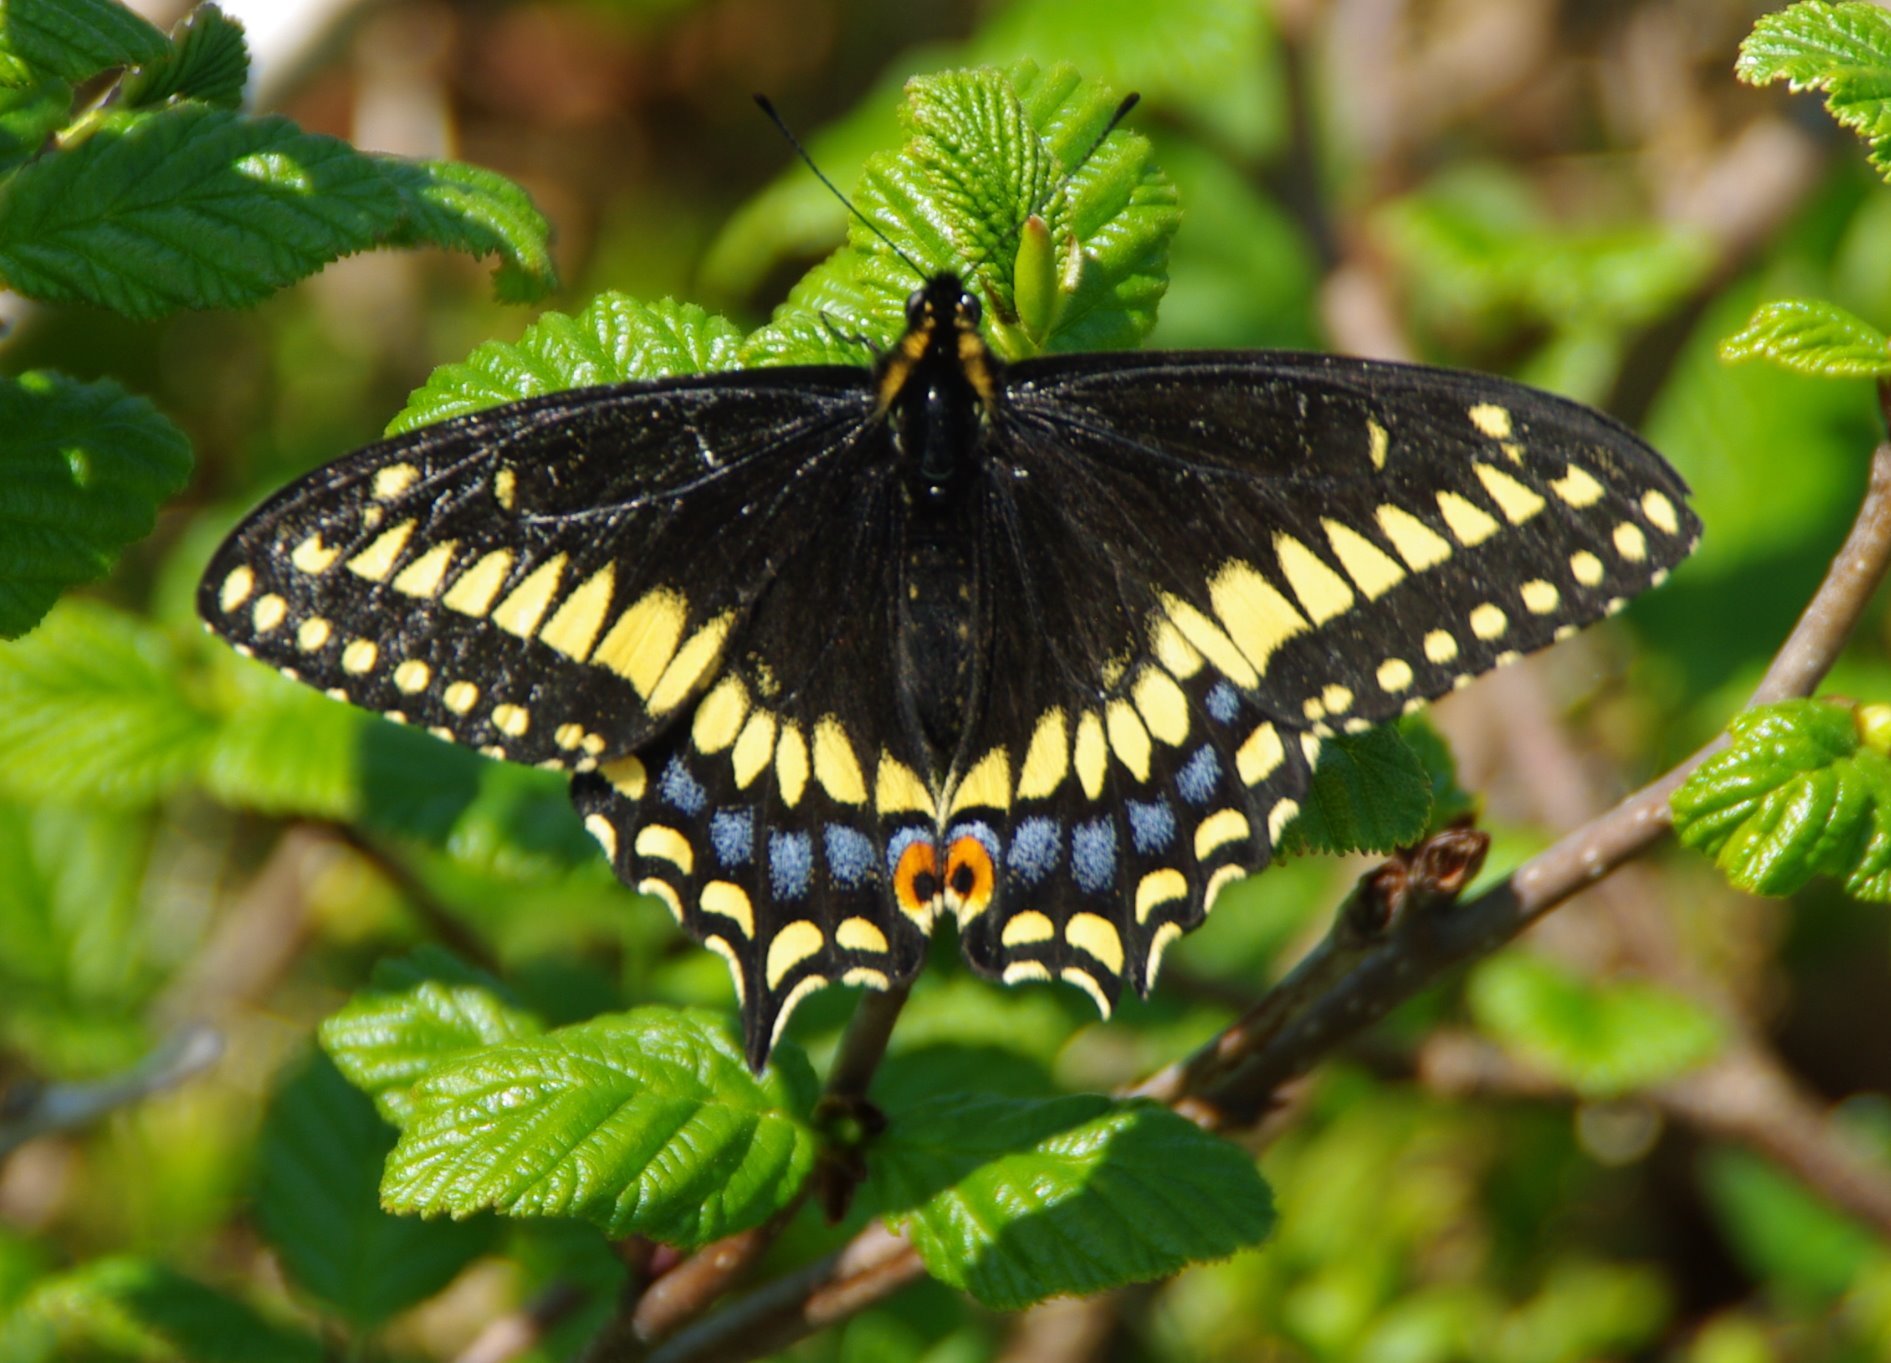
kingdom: Animalia
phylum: Arthropoda
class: Insecta
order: Lepidoptera
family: Papilionidae
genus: Papilio
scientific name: Papilio brevicauda
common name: Short tailed swallowtail
